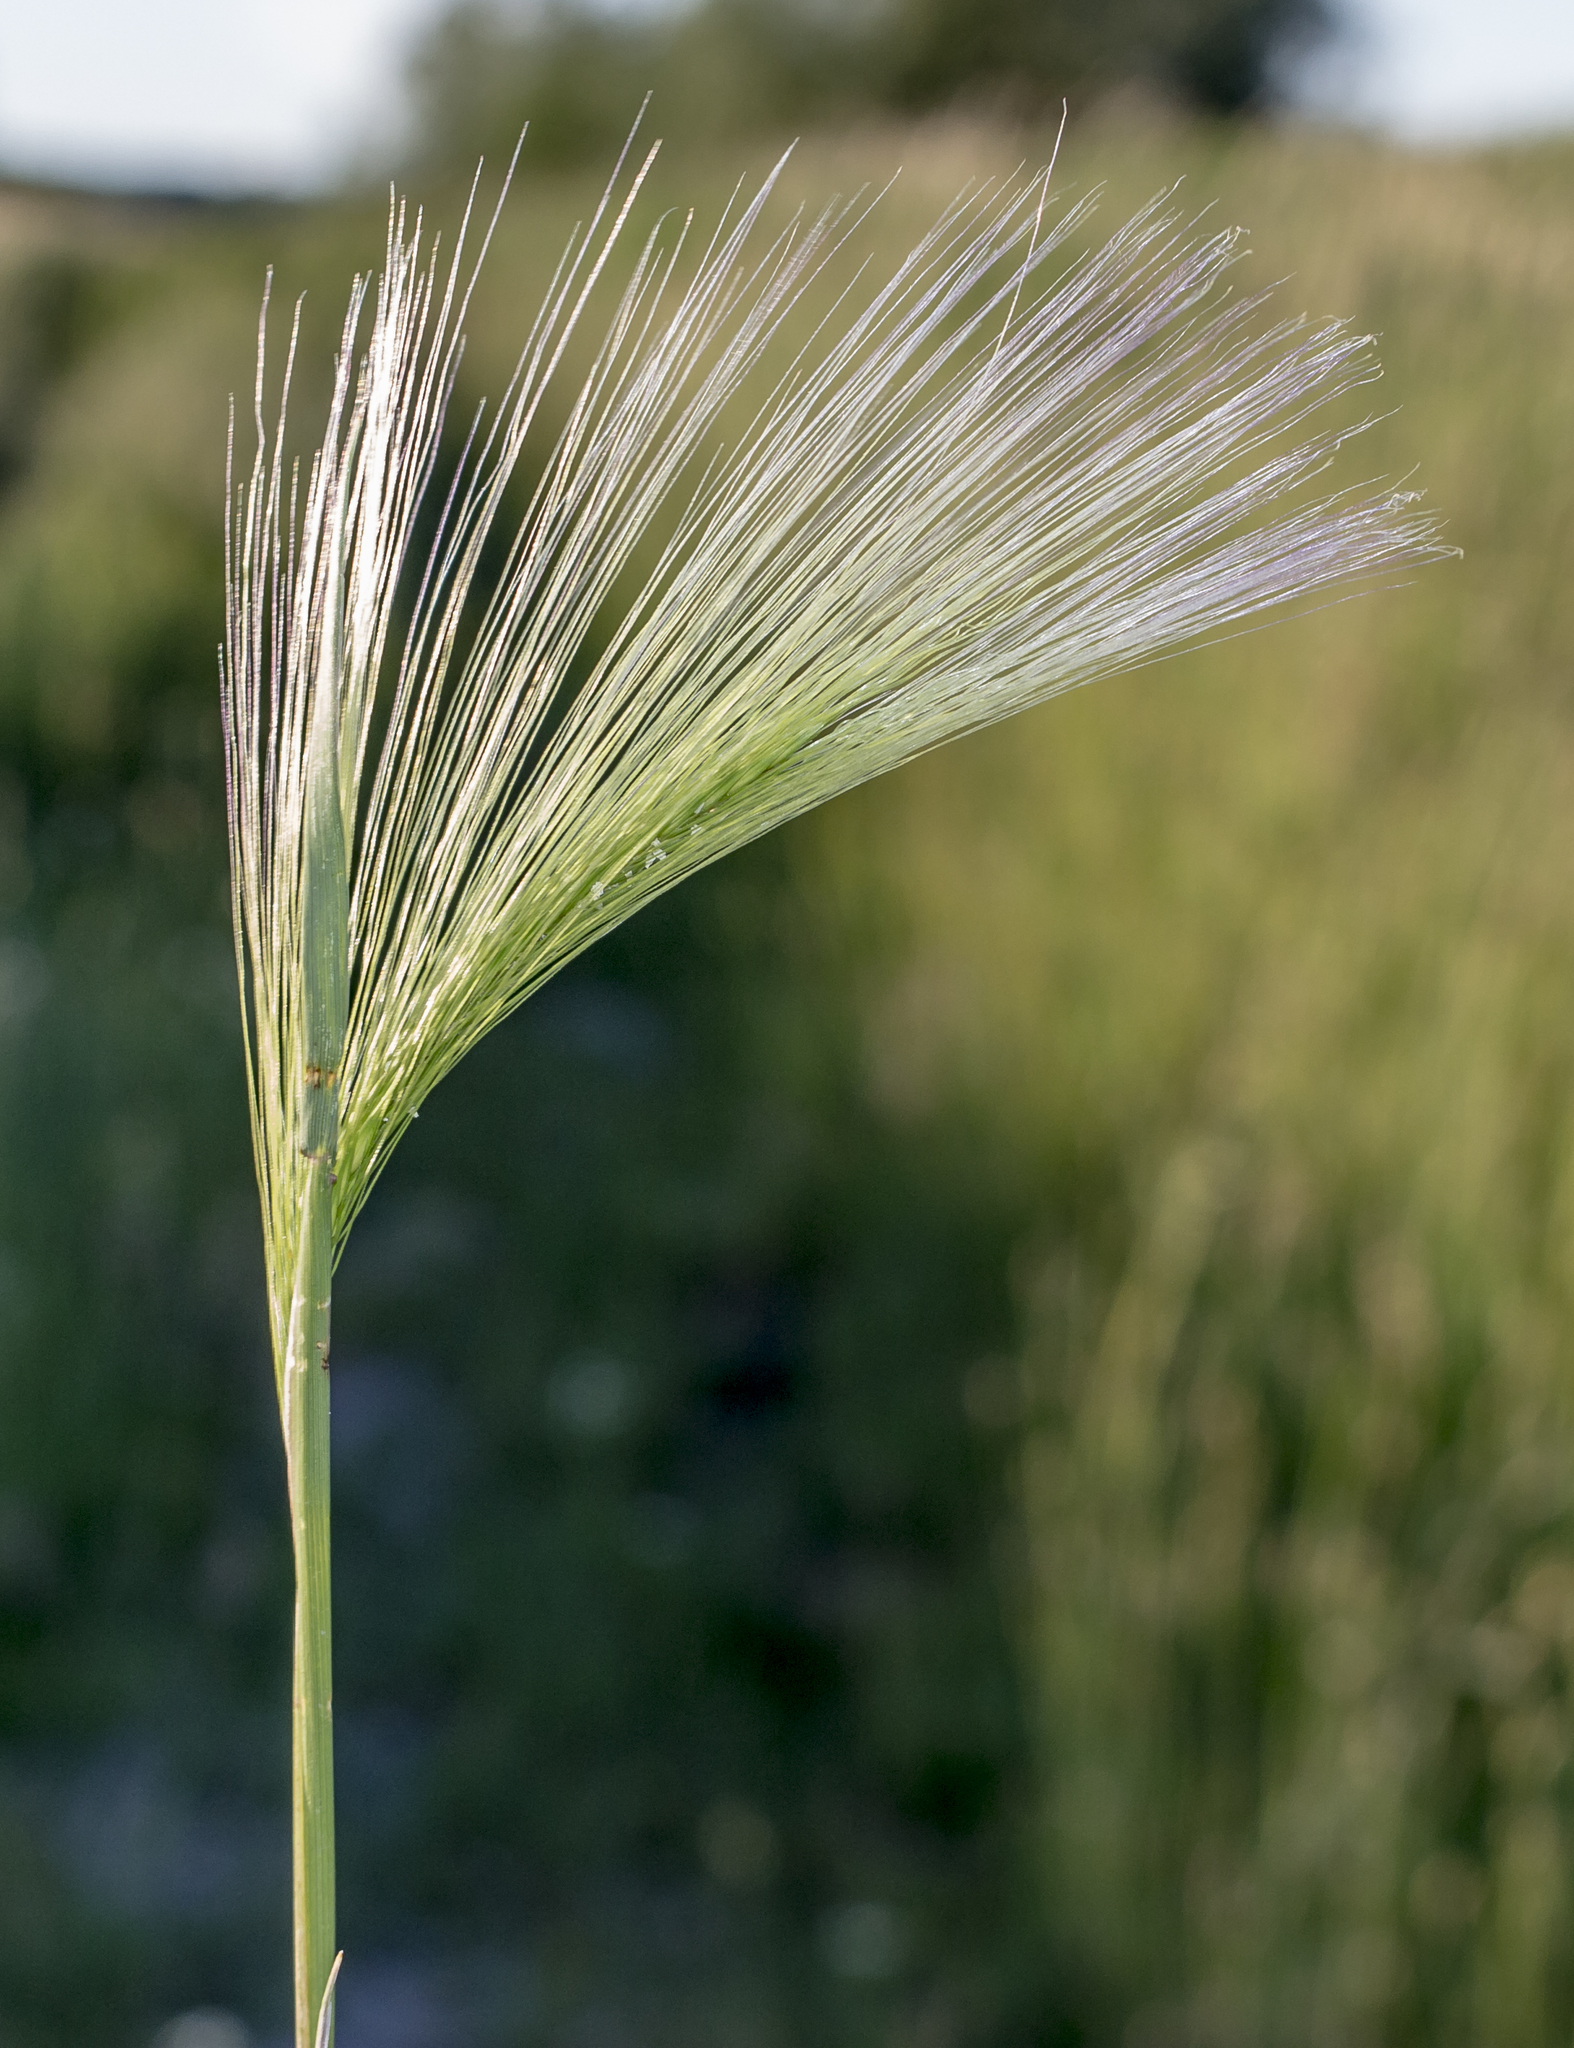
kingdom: Plantae
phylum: Tracheophyta
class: Liliopsida
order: Poales
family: Poaceae
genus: Hordeum
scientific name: Hordeum jubatum
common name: Foxtail barley
